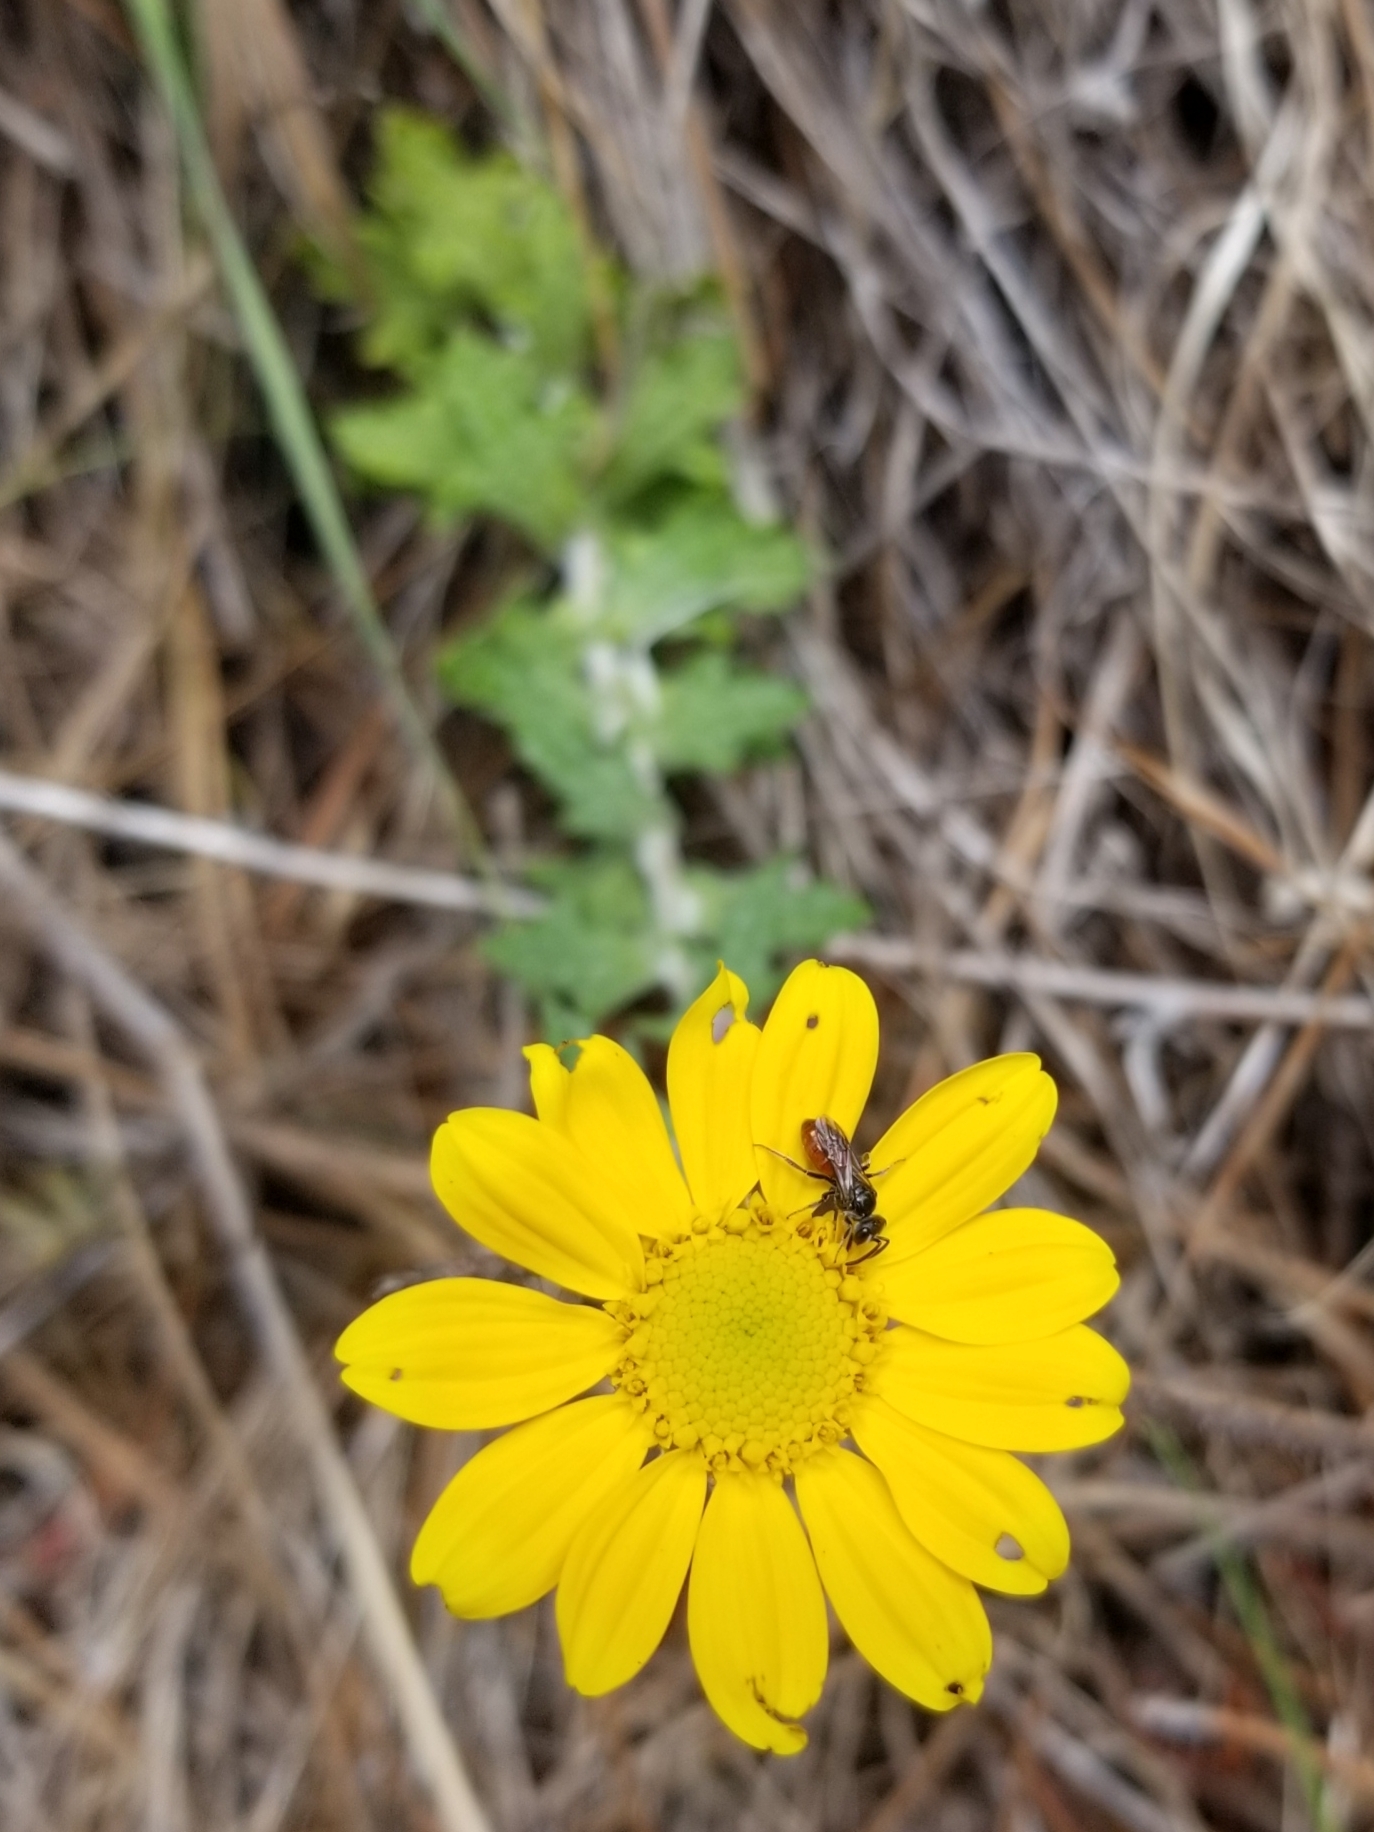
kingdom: Plantae
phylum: Tracheophyta
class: Magnoliopsida
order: Asterales
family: Asteraceae
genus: Eriophyllum
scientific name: Eriophyllum lanatum
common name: Common woolly-sunflower
